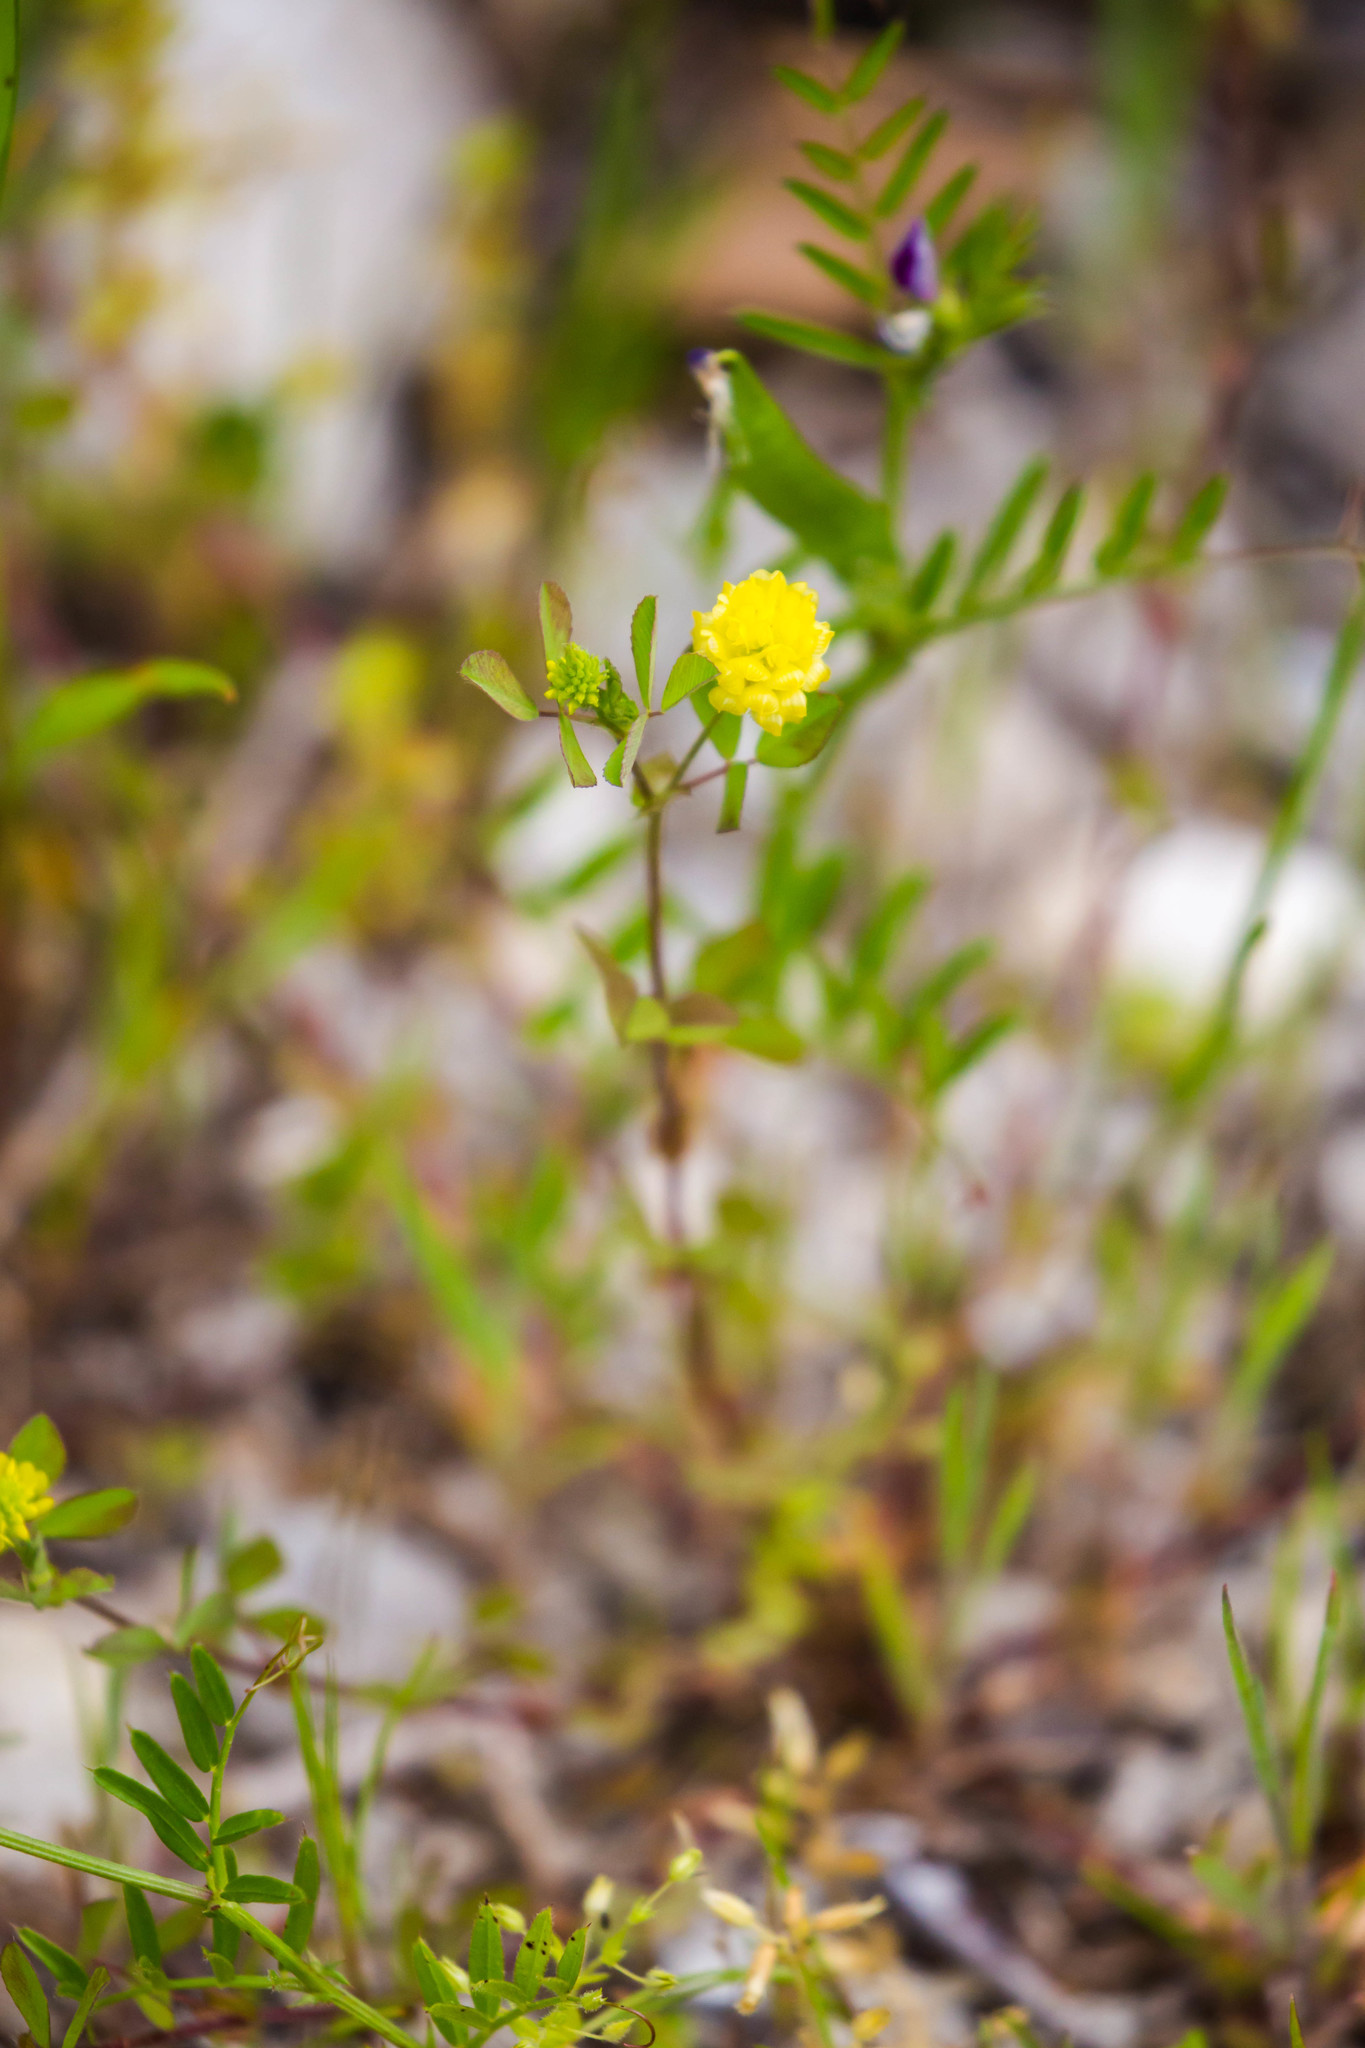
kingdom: Plantae
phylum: Tracheophyta
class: Magnoliopsida
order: Fabales
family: Fabaceae
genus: Trifolium
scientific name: Trifolium campestre
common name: Field clover
